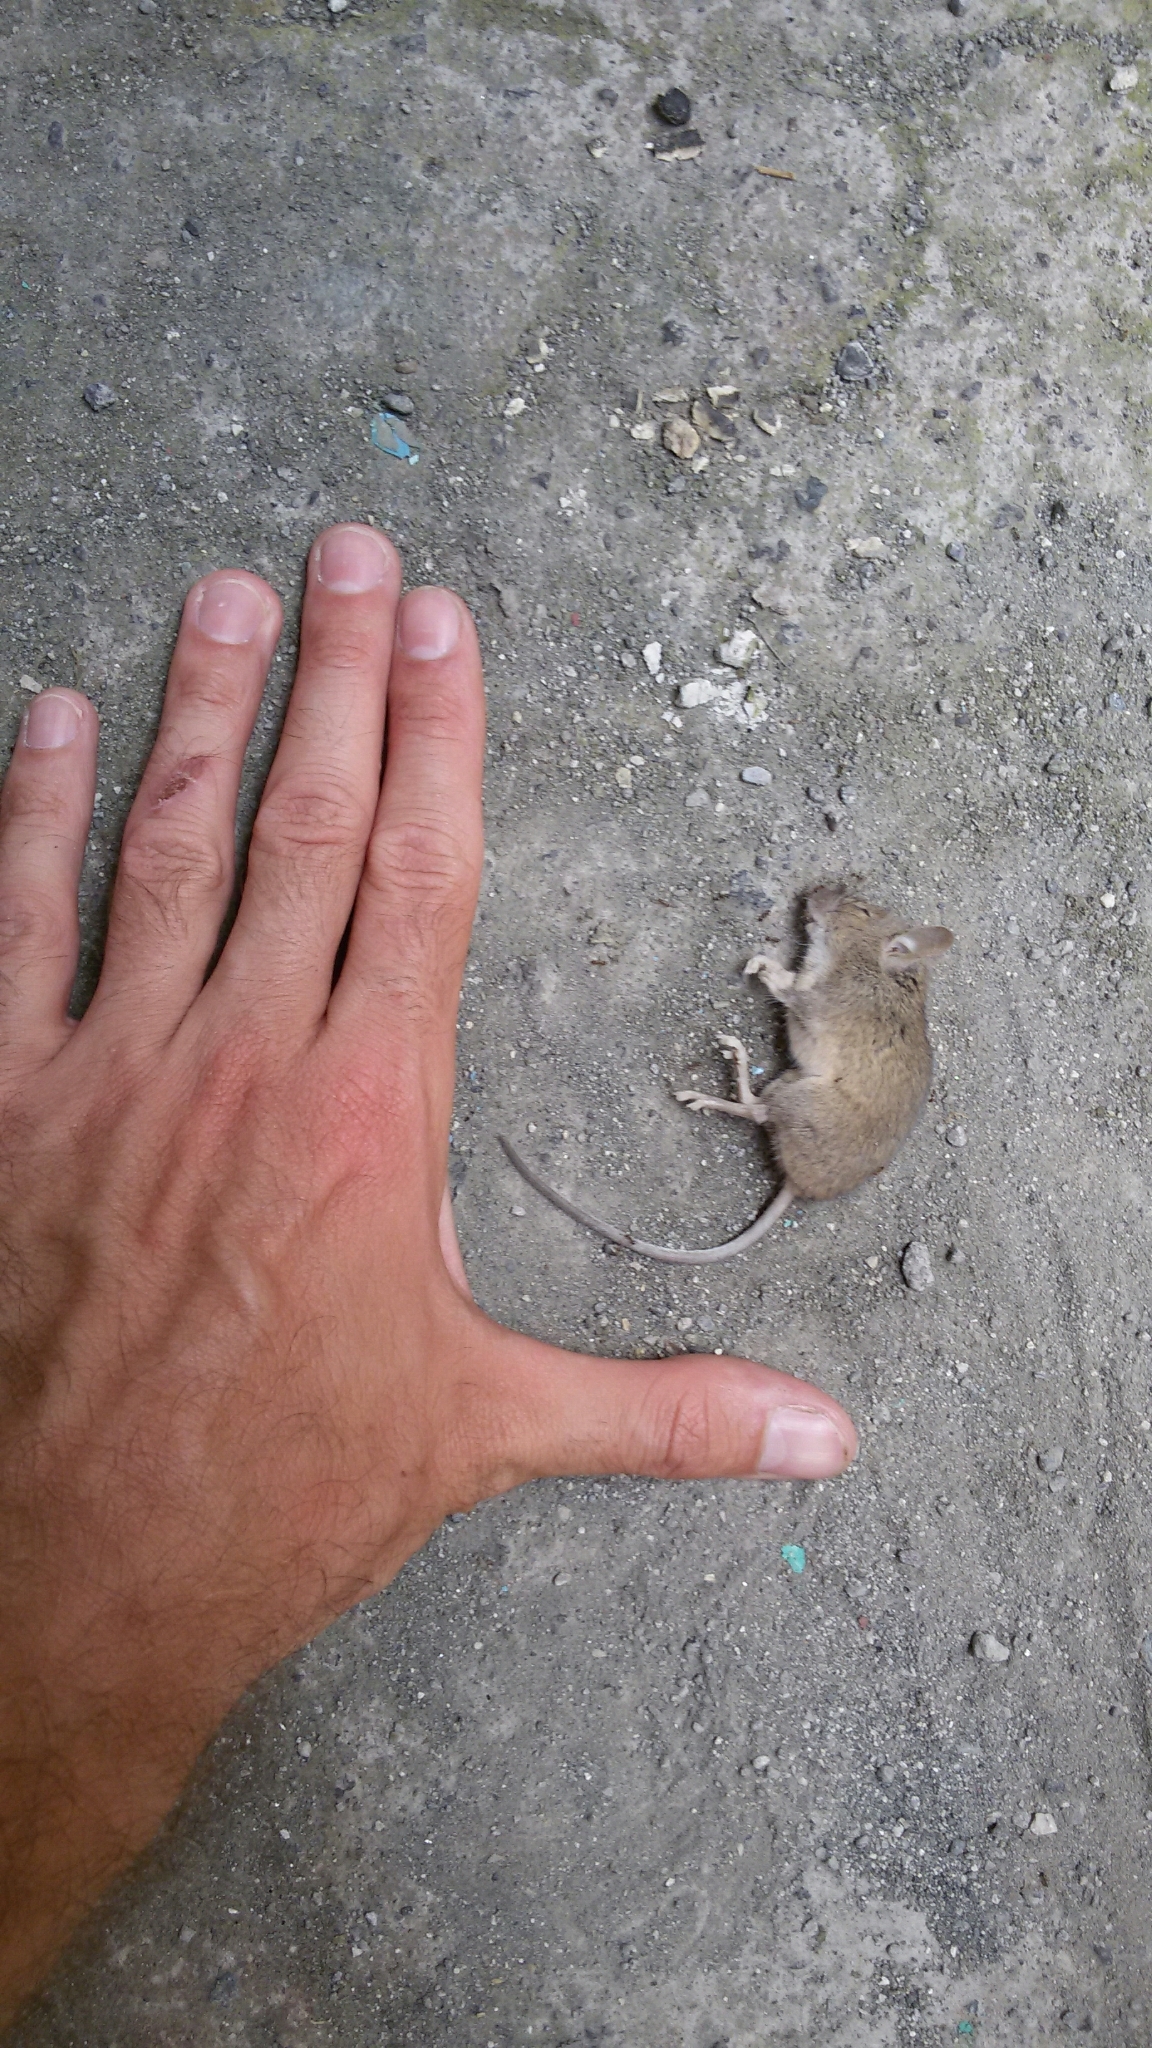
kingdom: Animalia
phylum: Chordata
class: Mammalia
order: Rodentia
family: Muridae
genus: Mus
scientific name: Mus musculus
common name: House mouse
